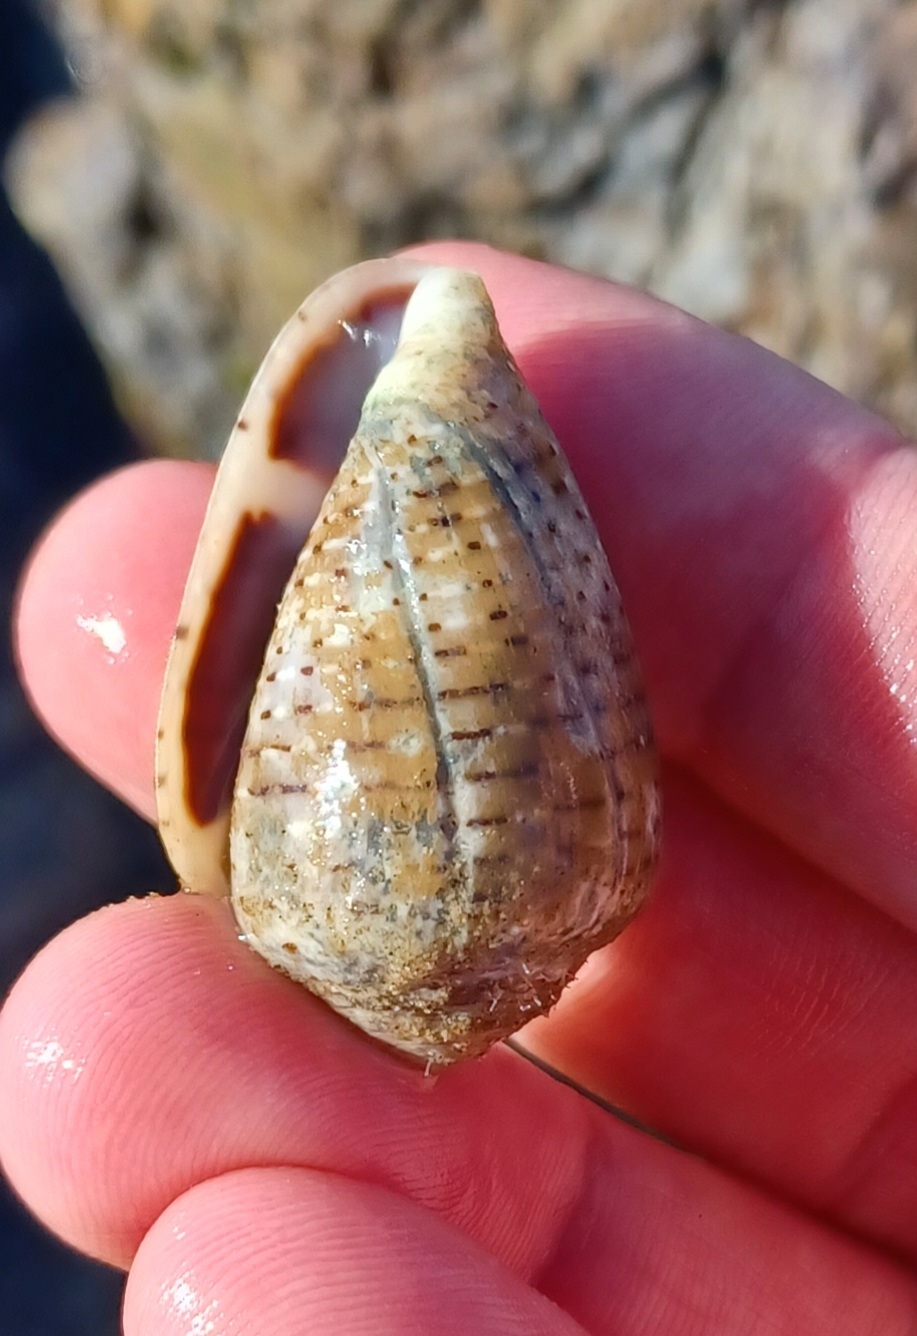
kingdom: Animalia
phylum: Mollusca
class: Gastropoda
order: Neogastropoda
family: Conidae
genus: Conus
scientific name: Conus coronatus
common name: Coronated cone
